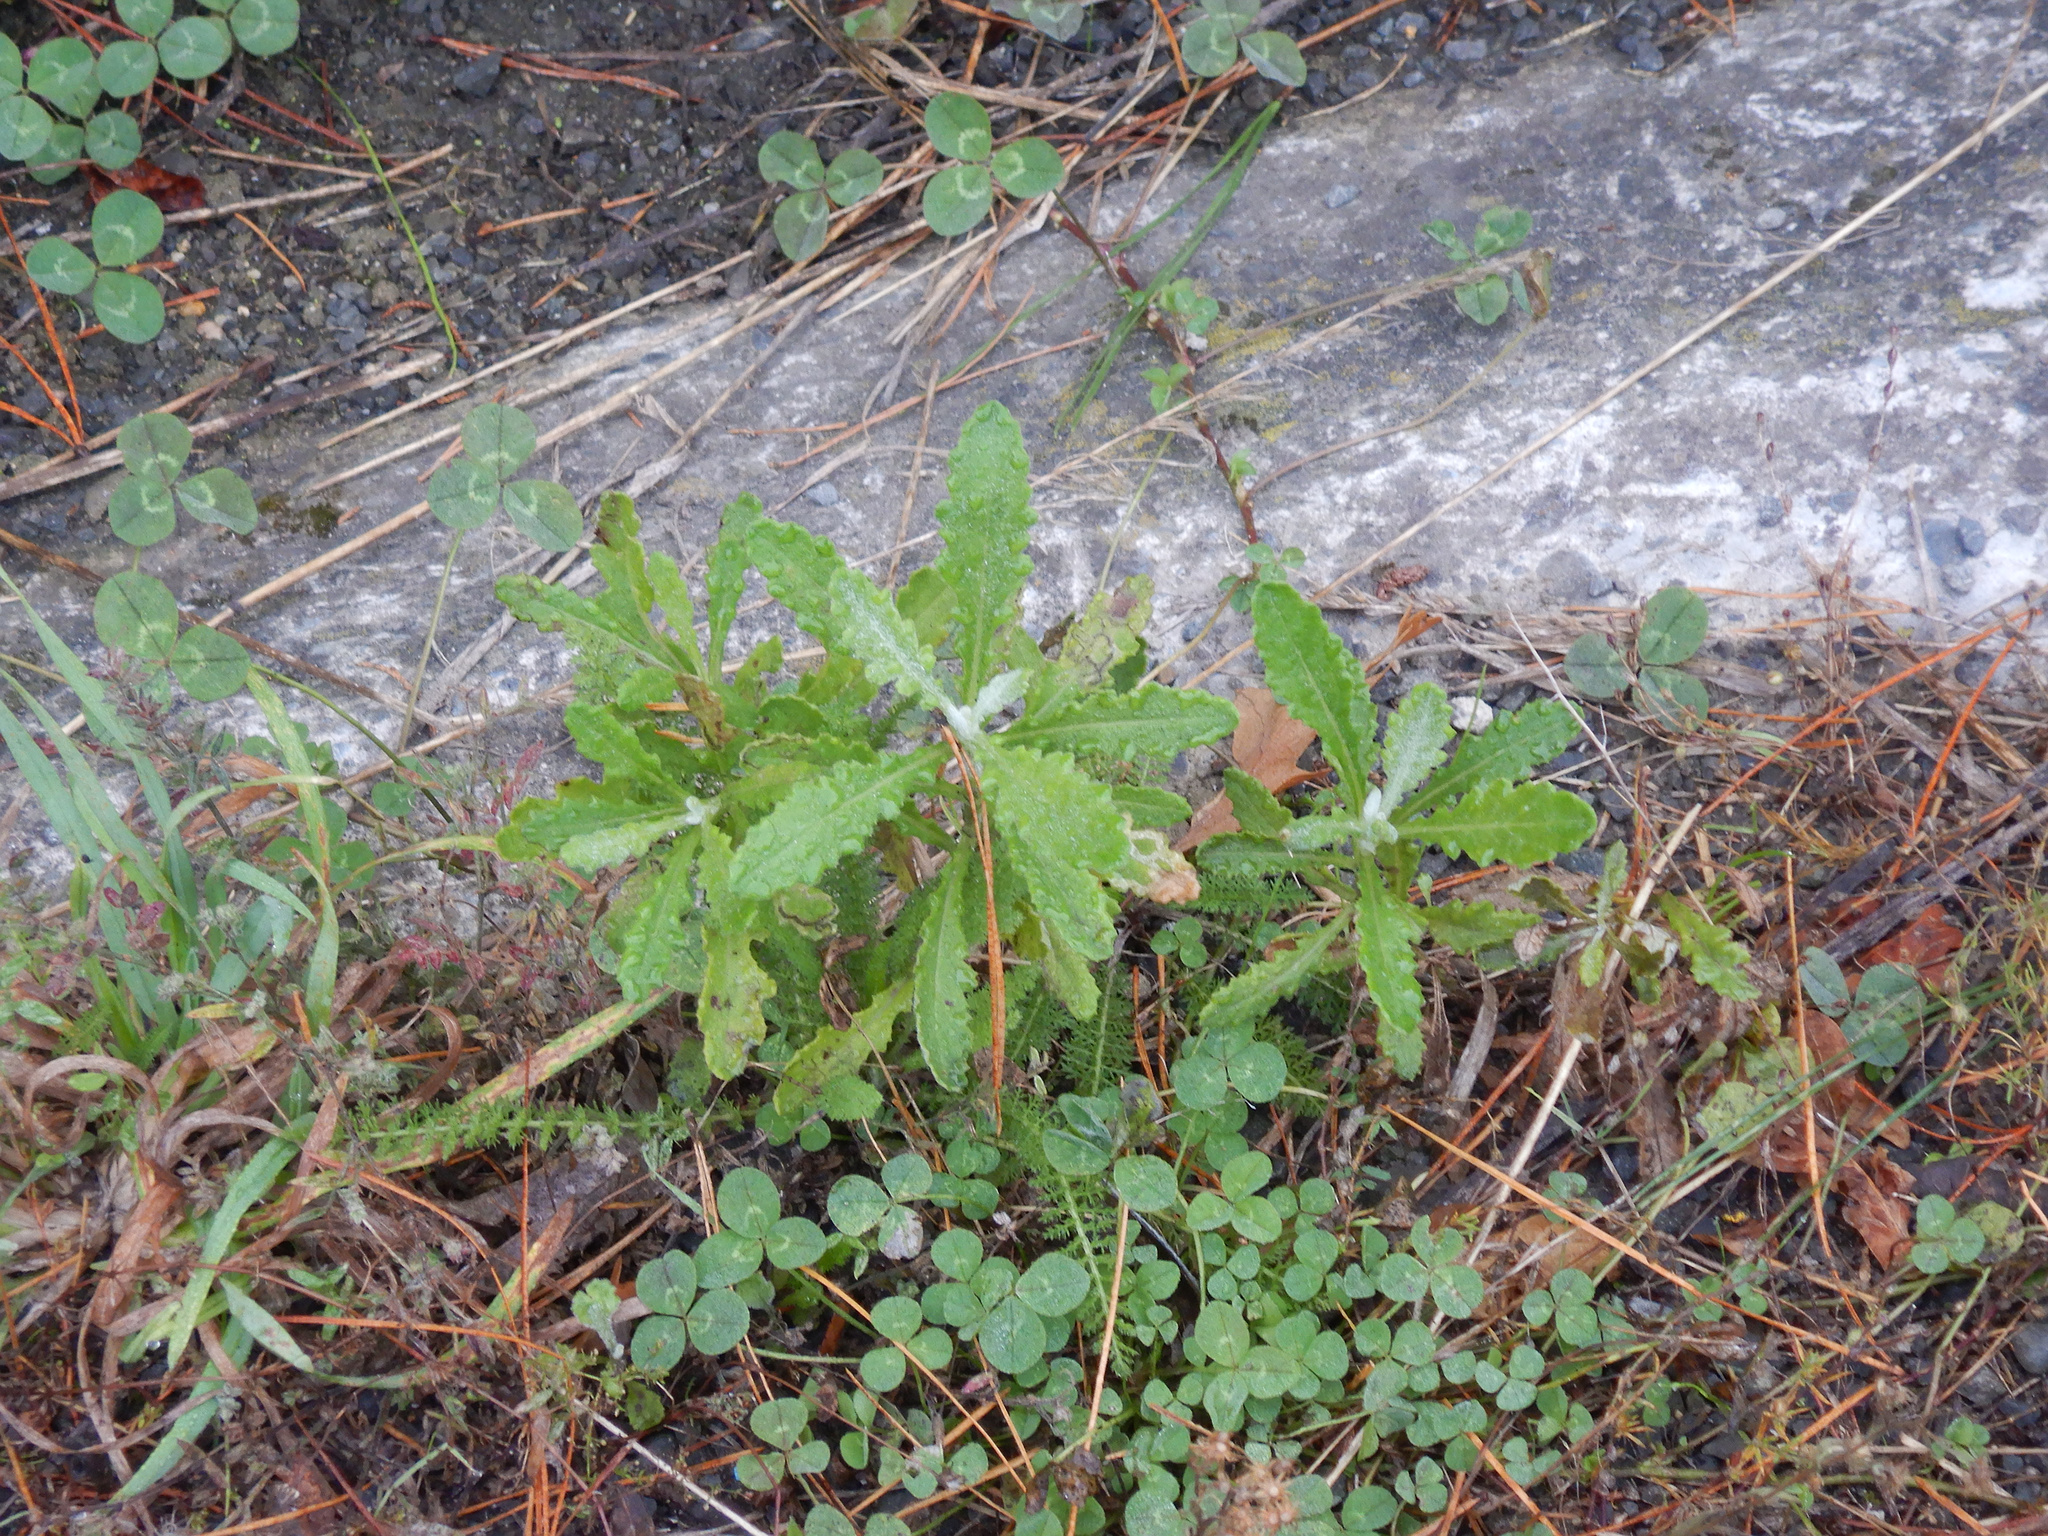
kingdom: Plantae
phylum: Tracheophyta
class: Magnoliopsida
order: Asterales
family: Asteraceae
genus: Senecio
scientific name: Senecio glomeratus
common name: Cutleaf burnweed
